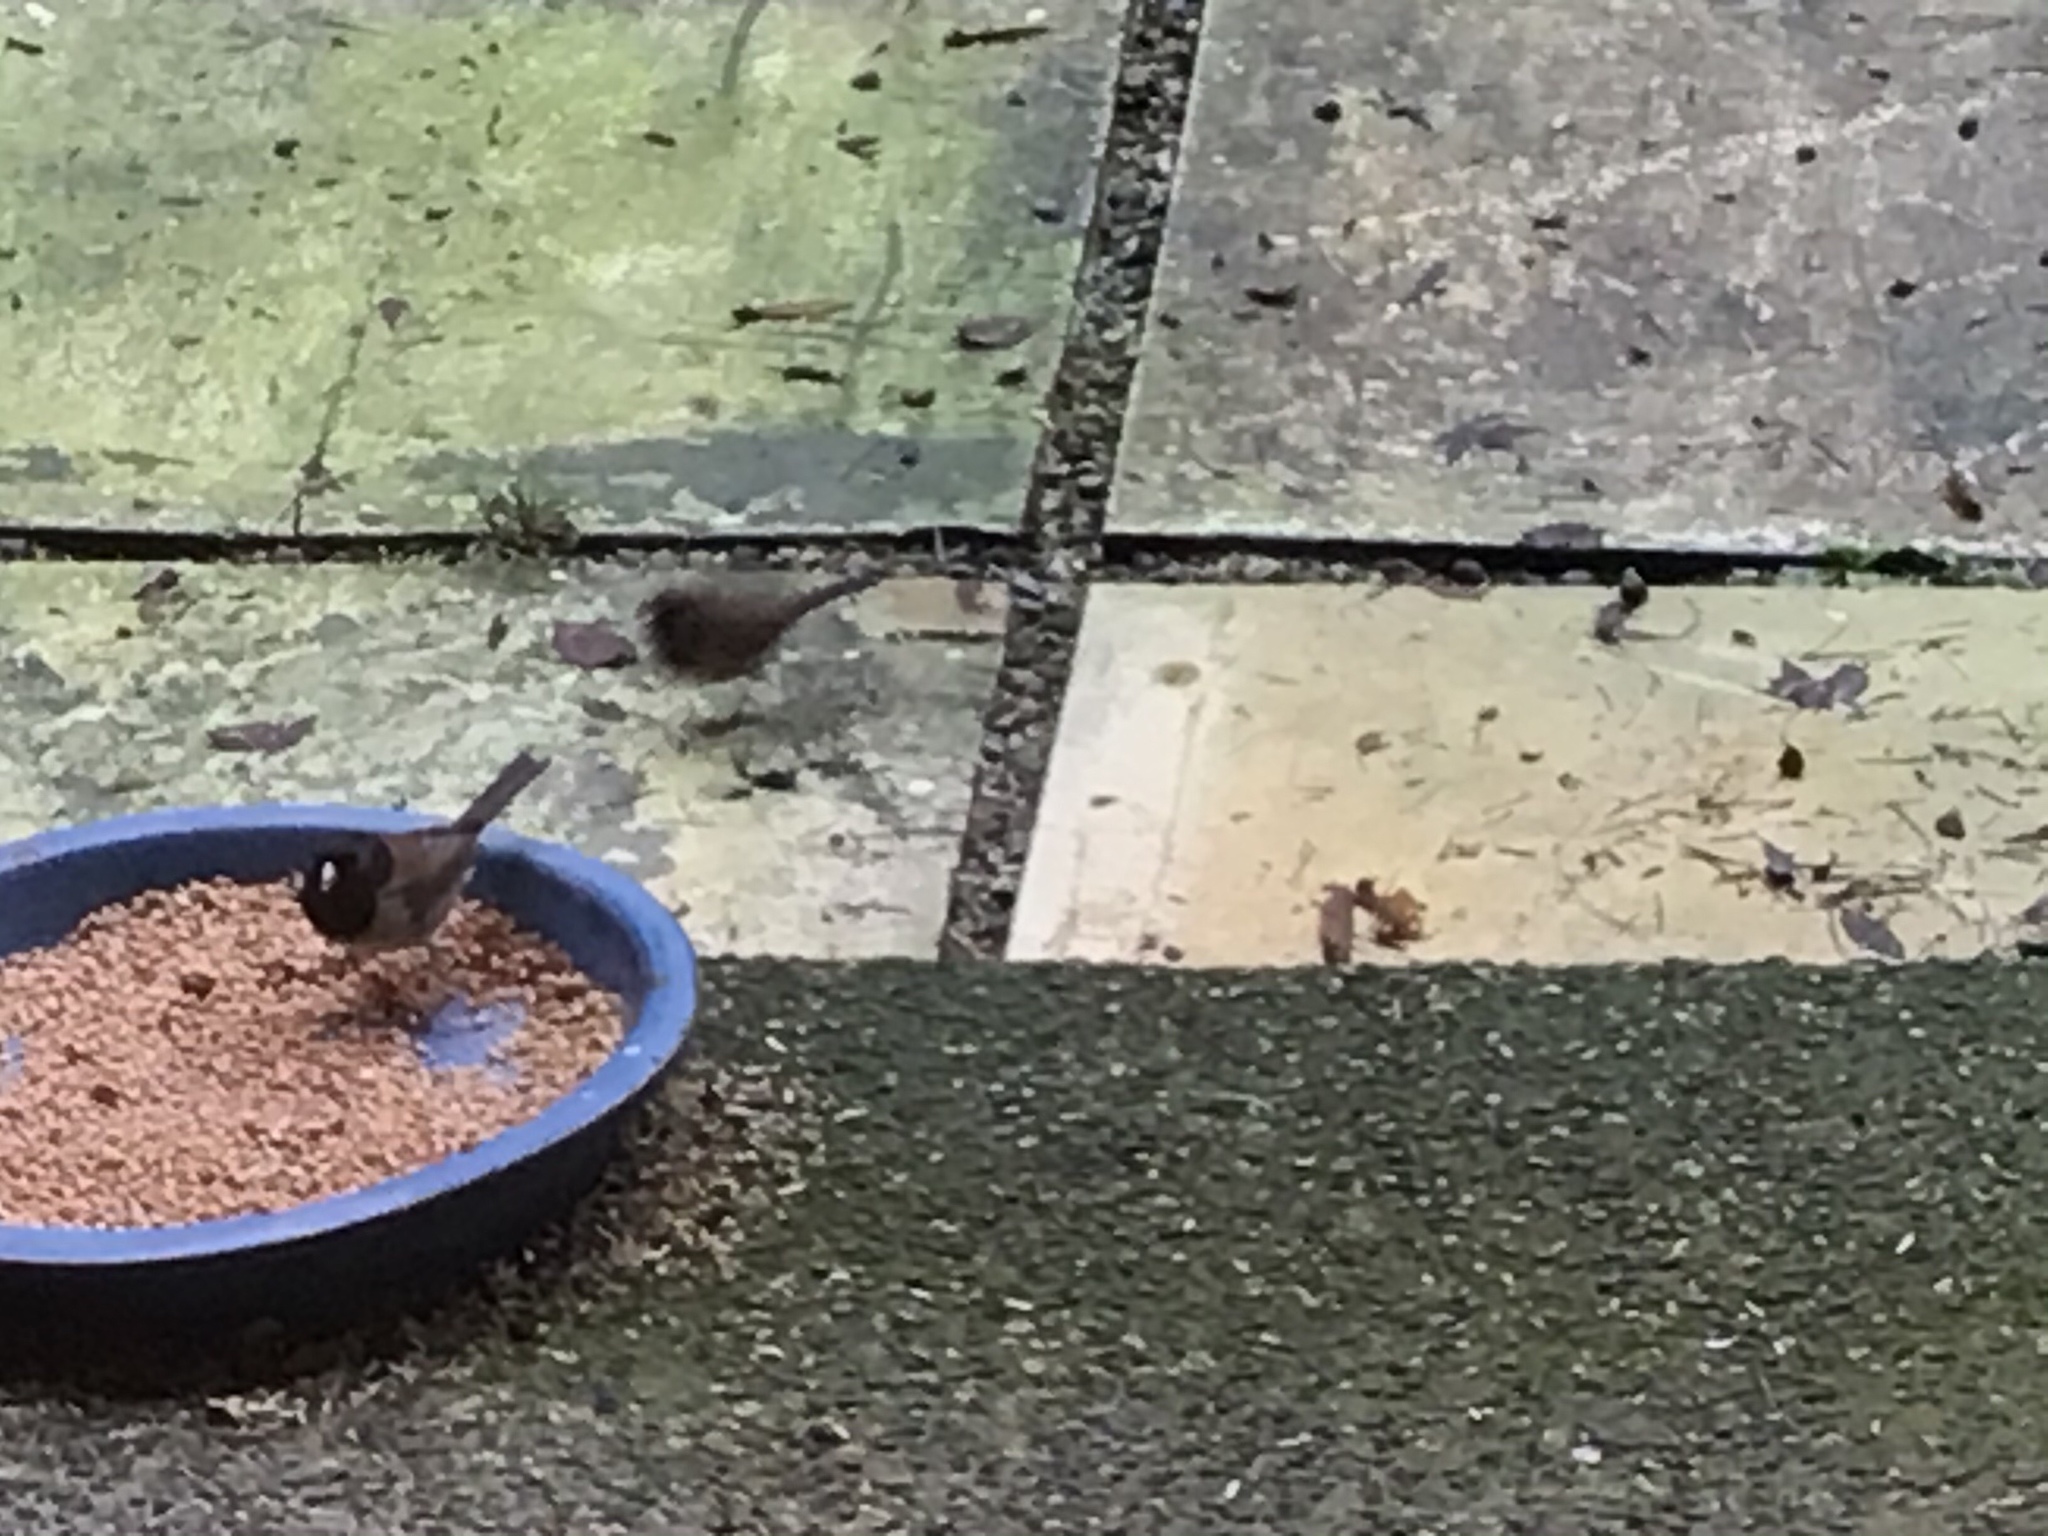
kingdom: Animalia
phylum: Chordata
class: Aves
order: Passeriformes
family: Passerellidae
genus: Junco
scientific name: Junco hyemalis
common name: Dark-eyed junco
